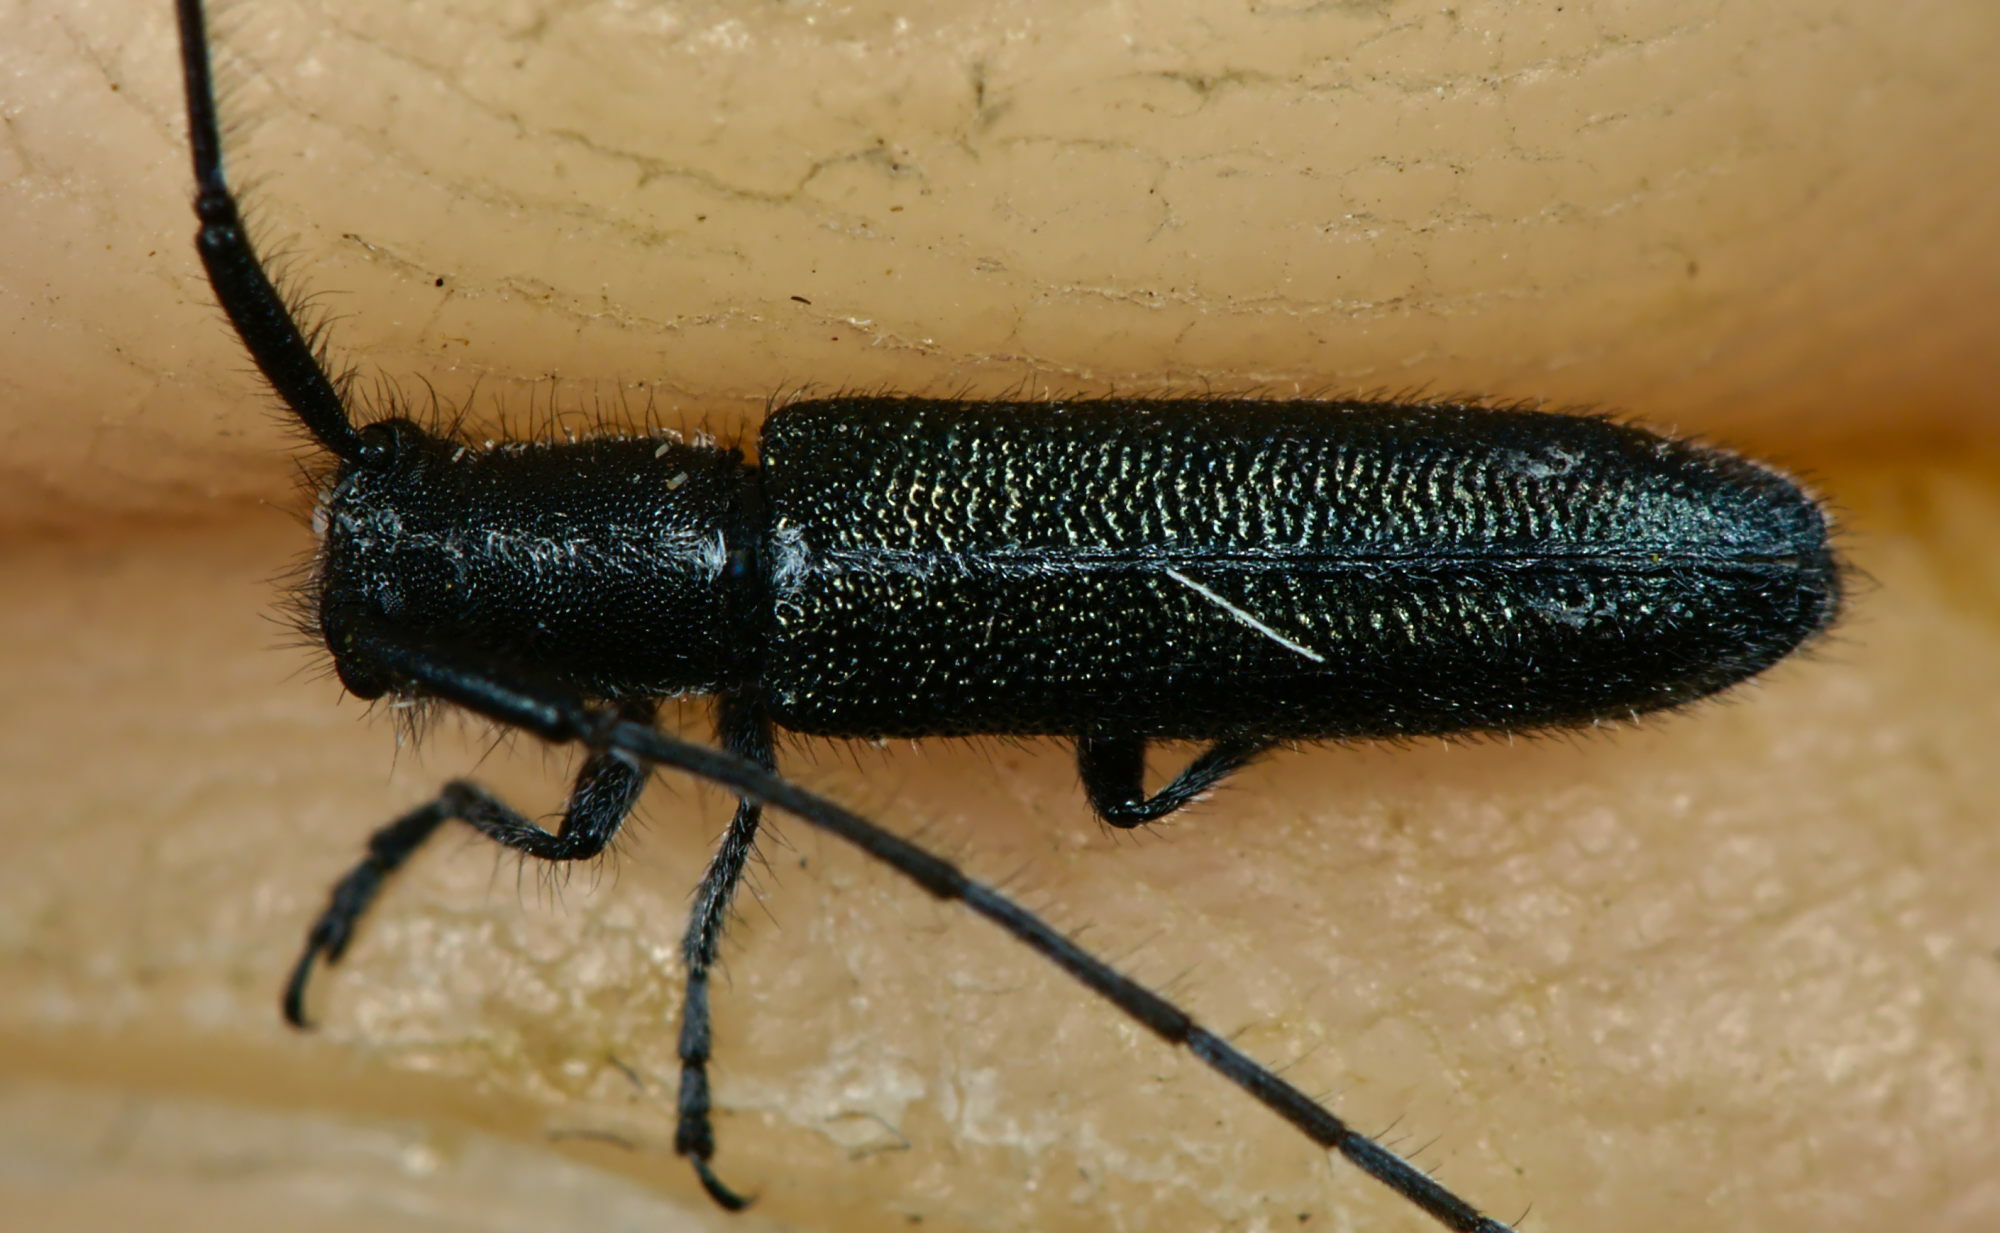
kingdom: Animalia
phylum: Arthropoda
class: Insecta
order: Coleoptera
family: Cerambycidae
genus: Agapanthia
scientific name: Agapanthia cardui
